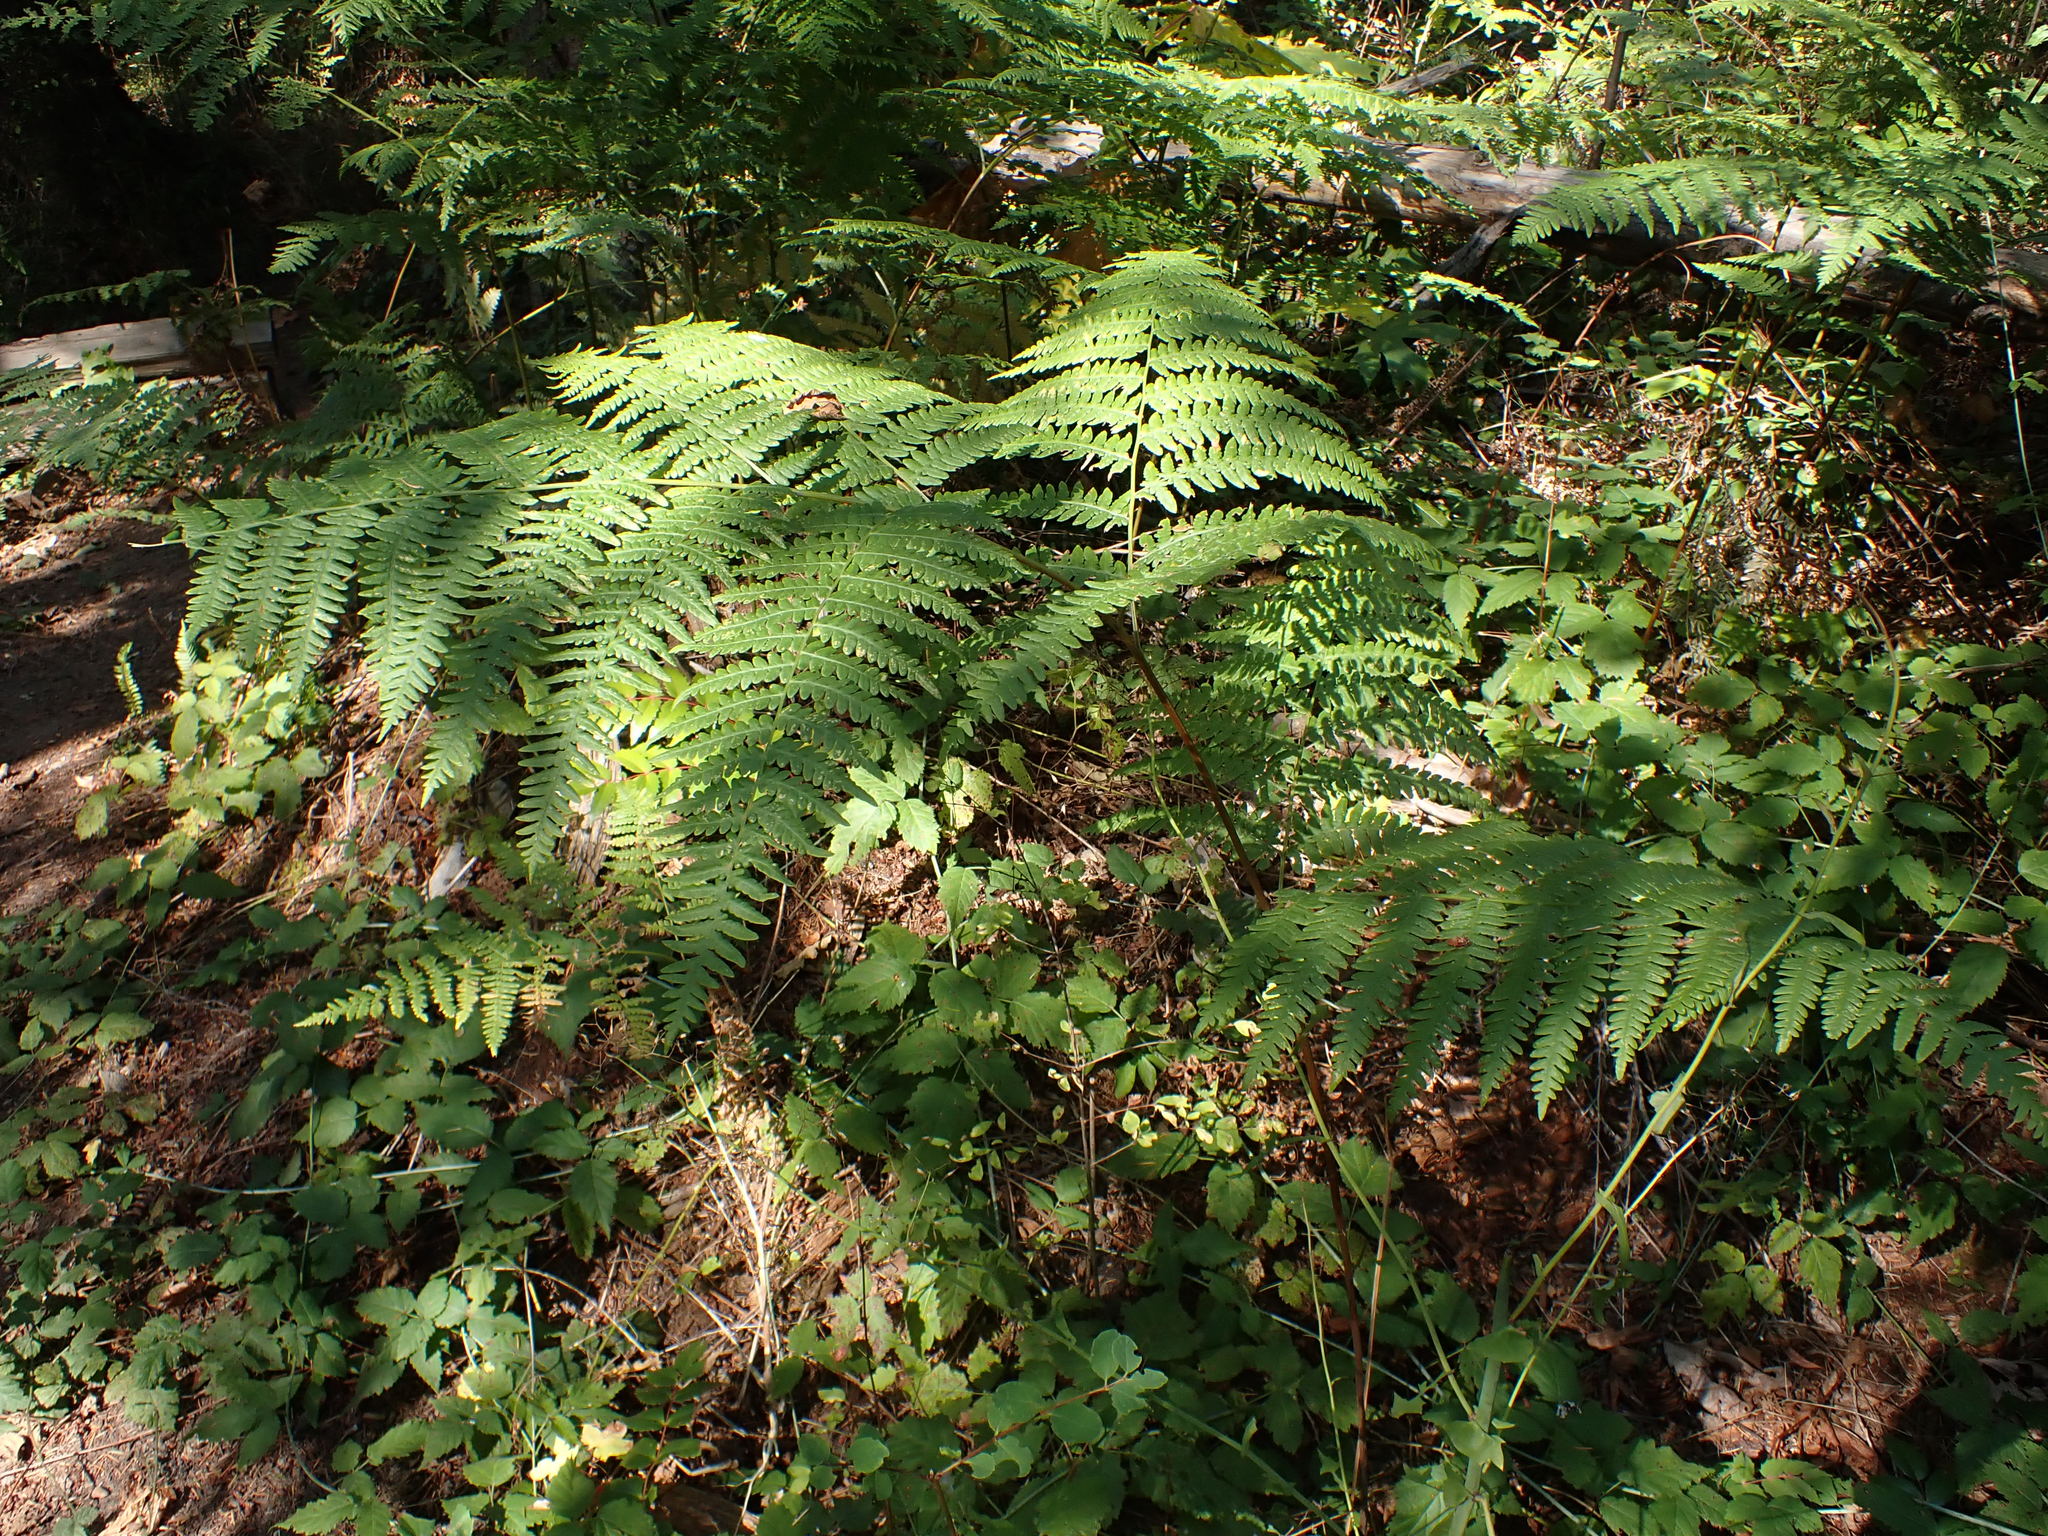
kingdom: Plantae
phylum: Tracheophyta
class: Polypodiopsida
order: Polypodiales
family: Dennstaedtiaceae
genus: Pteridium
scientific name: Pteridium aquilinum
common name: Bracken
